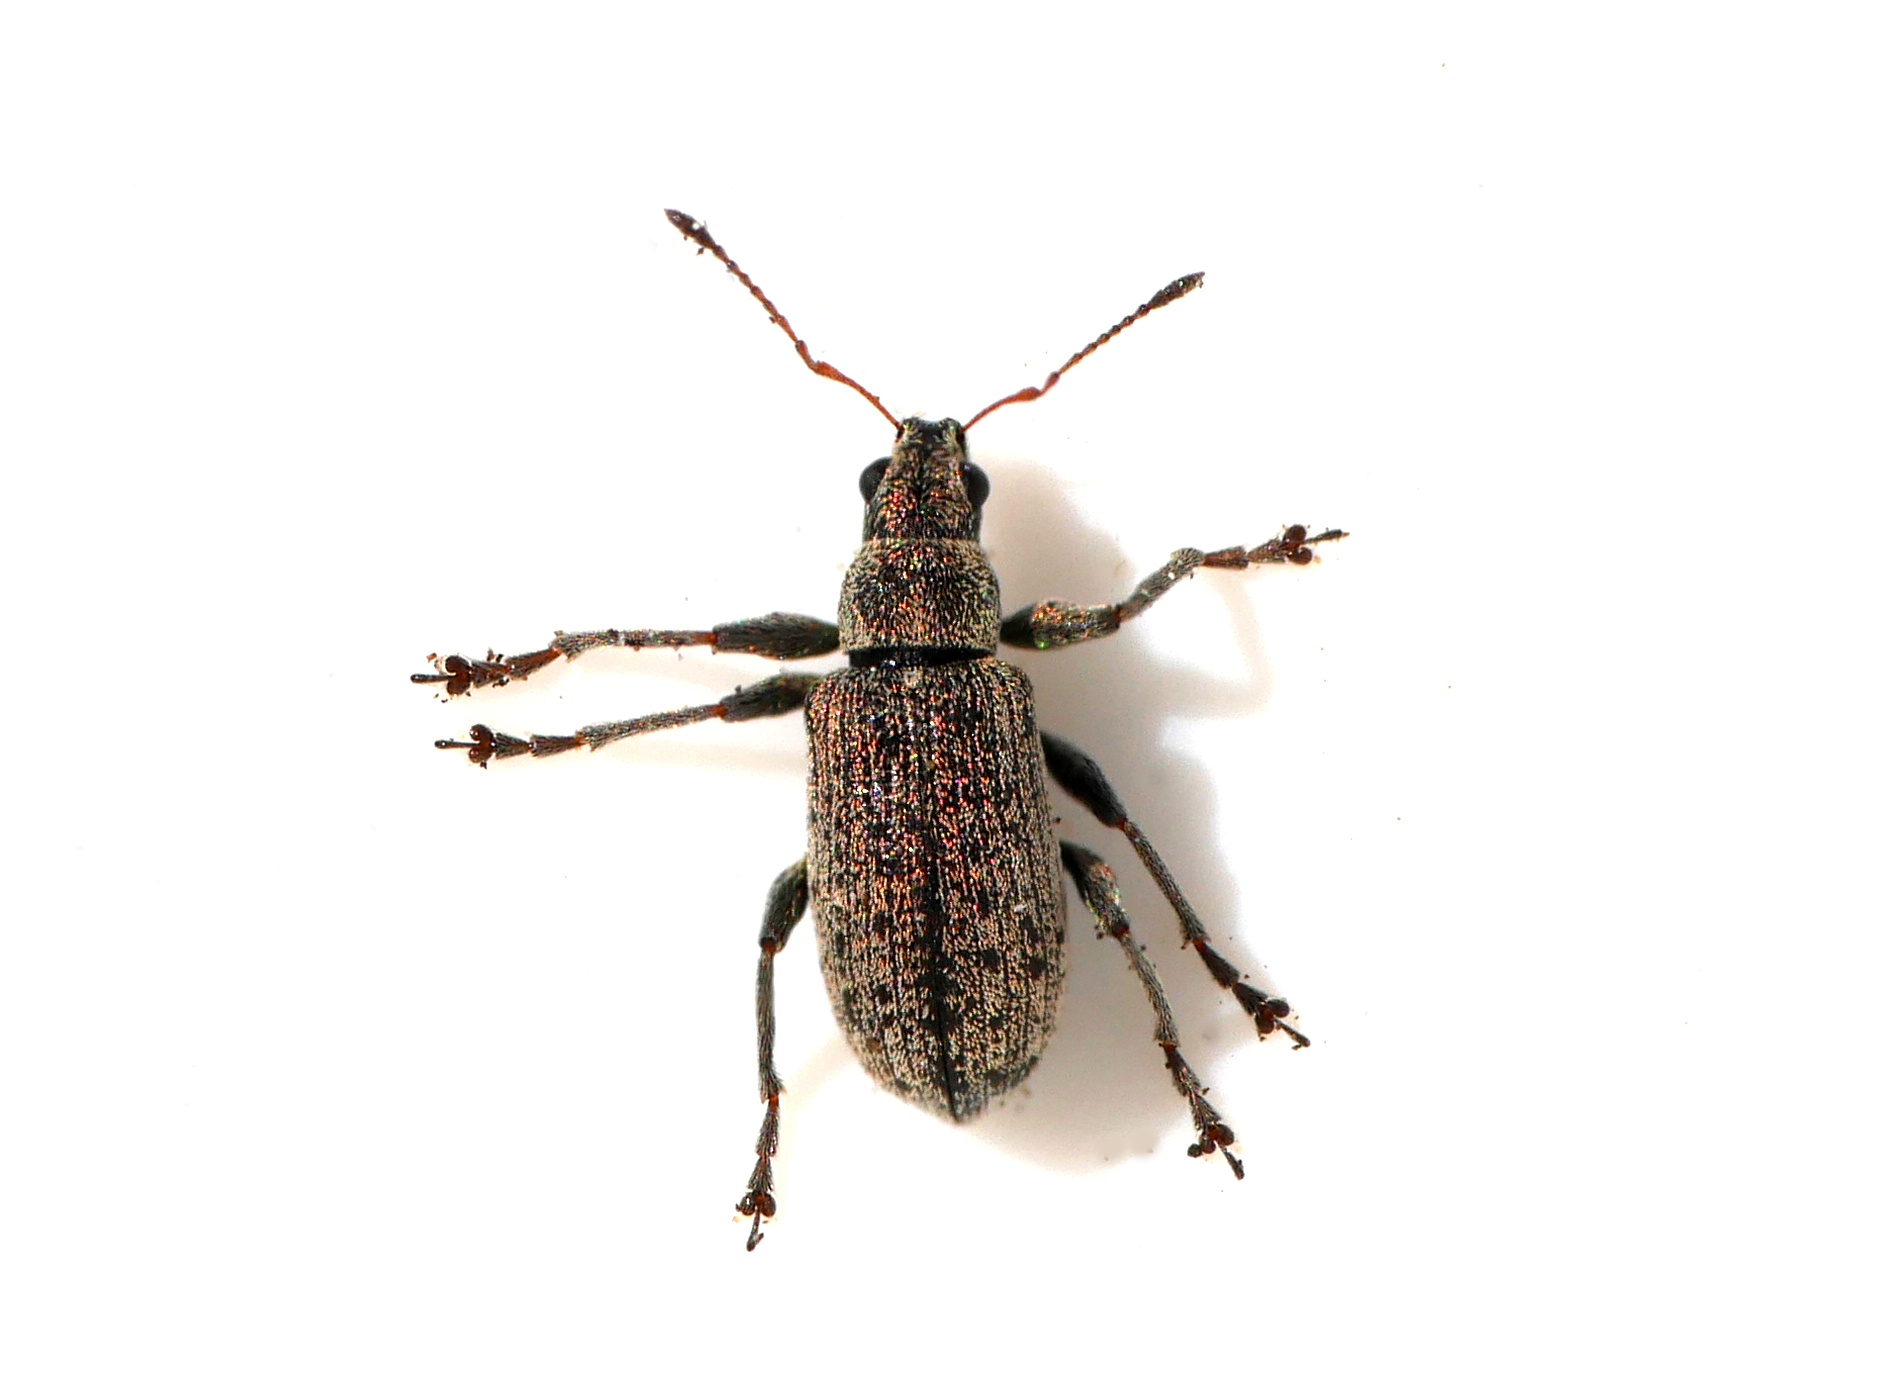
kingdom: Animalia
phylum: Arthropoda
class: Insecta
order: Coleoptera
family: Curculionidae
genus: Polydrusus
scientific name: Polydrusus cervinus
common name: Weevil
